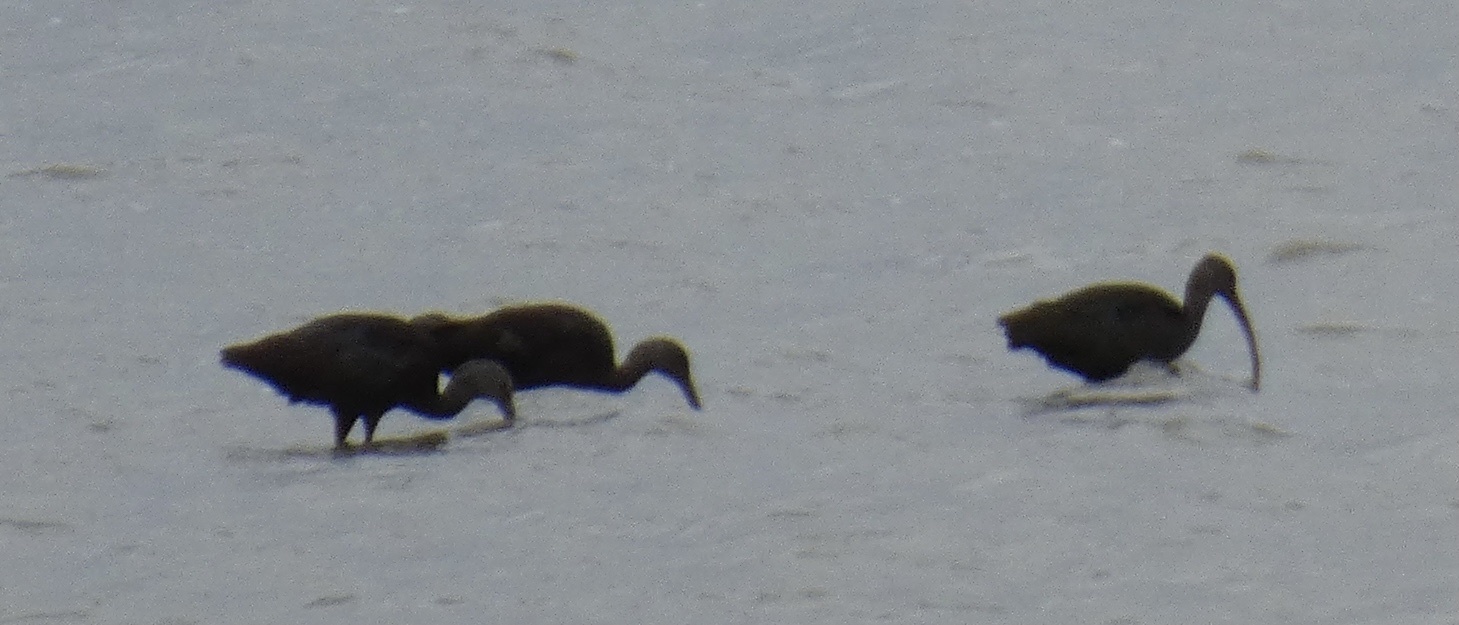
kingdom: Animalia
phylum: Chordata
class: Aves
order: Pelecaniformes
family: Threskiornithidae
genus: Plegadis
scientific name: Plegadis chihi
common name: White-faced ibis
